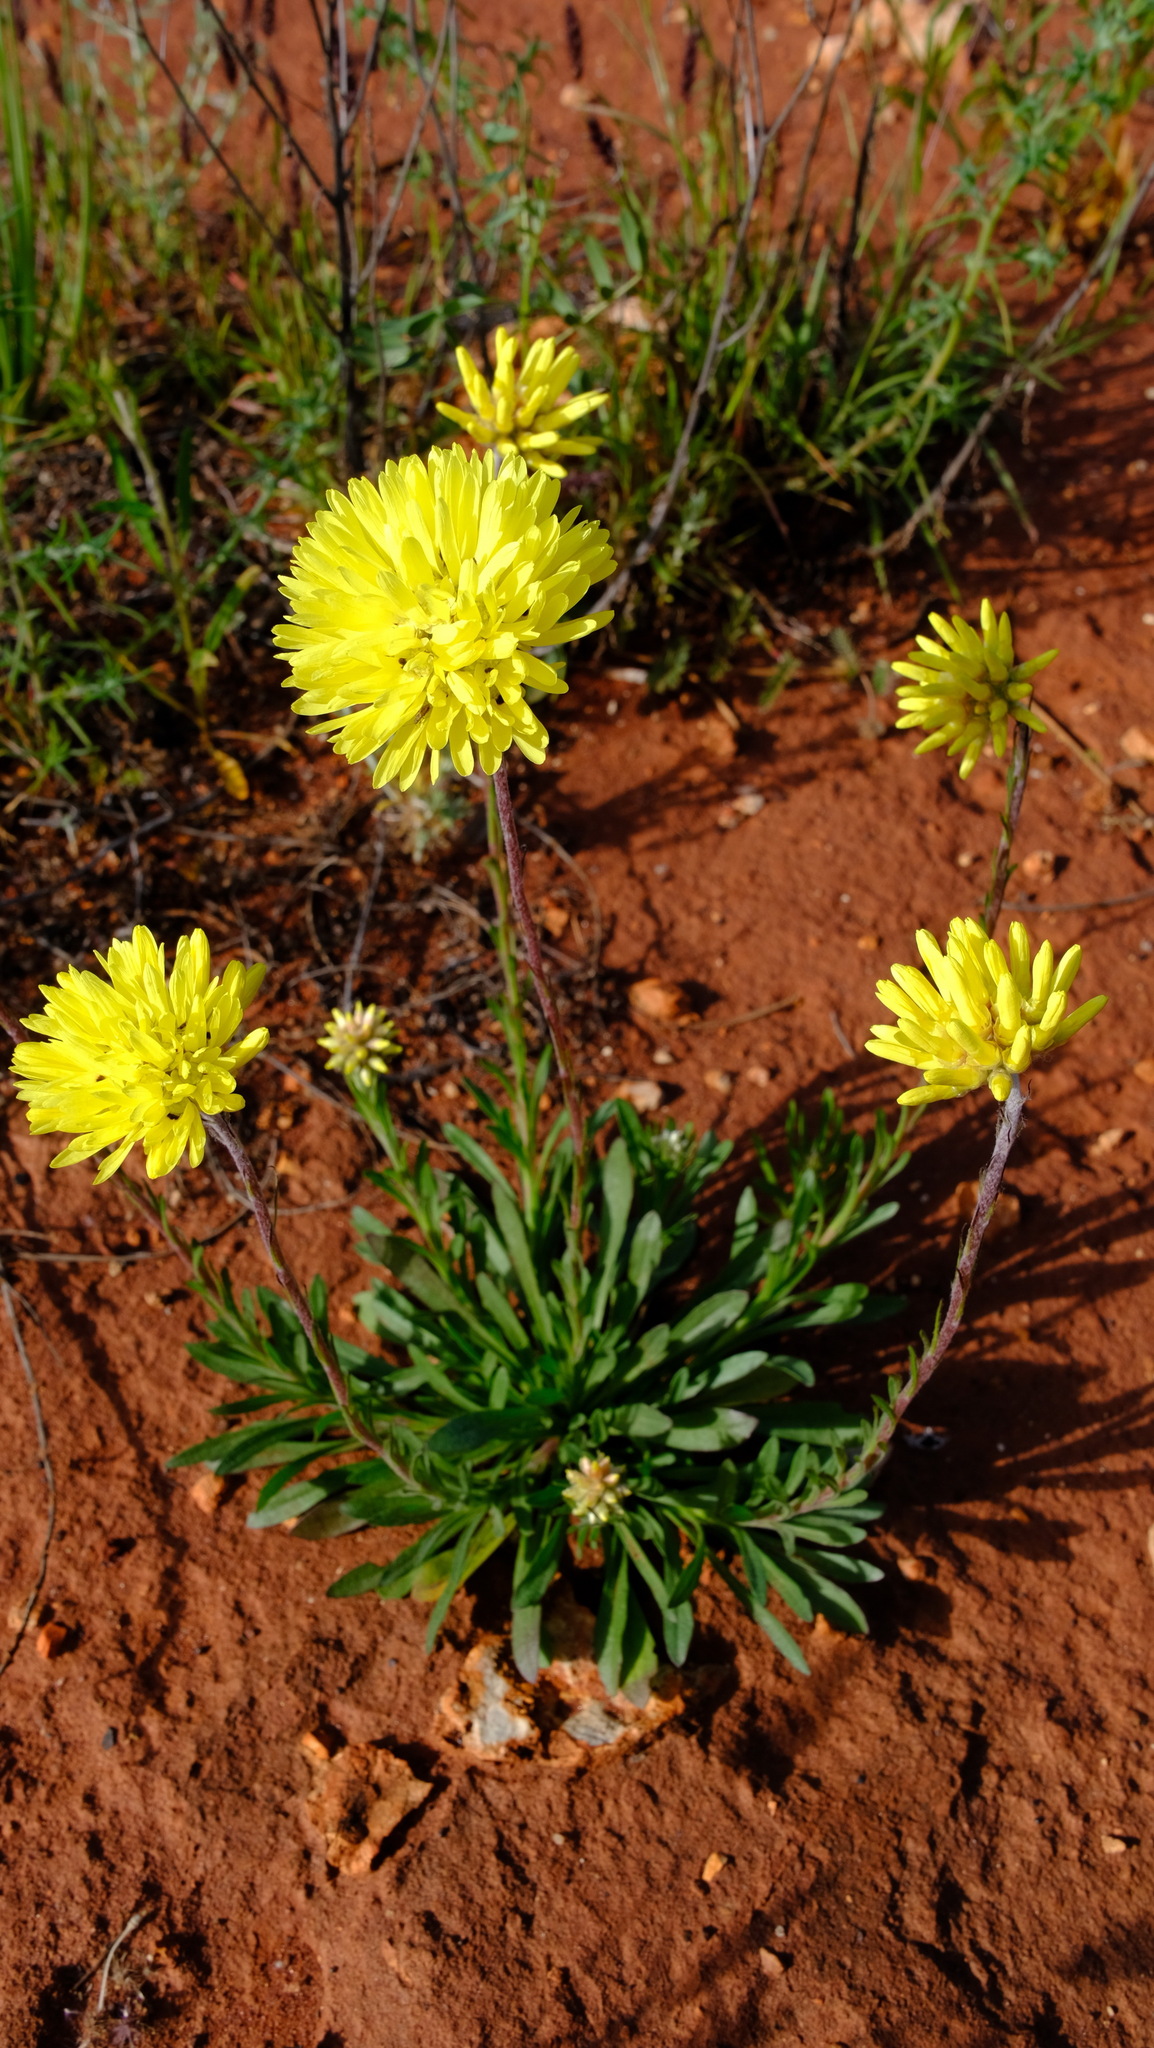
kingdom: Plantae
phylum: Tracheophyta
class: Magnoliopsida
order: Asterales
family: Asteraceae
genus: Cephalipterum
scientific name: Cephalipterum drummondii
